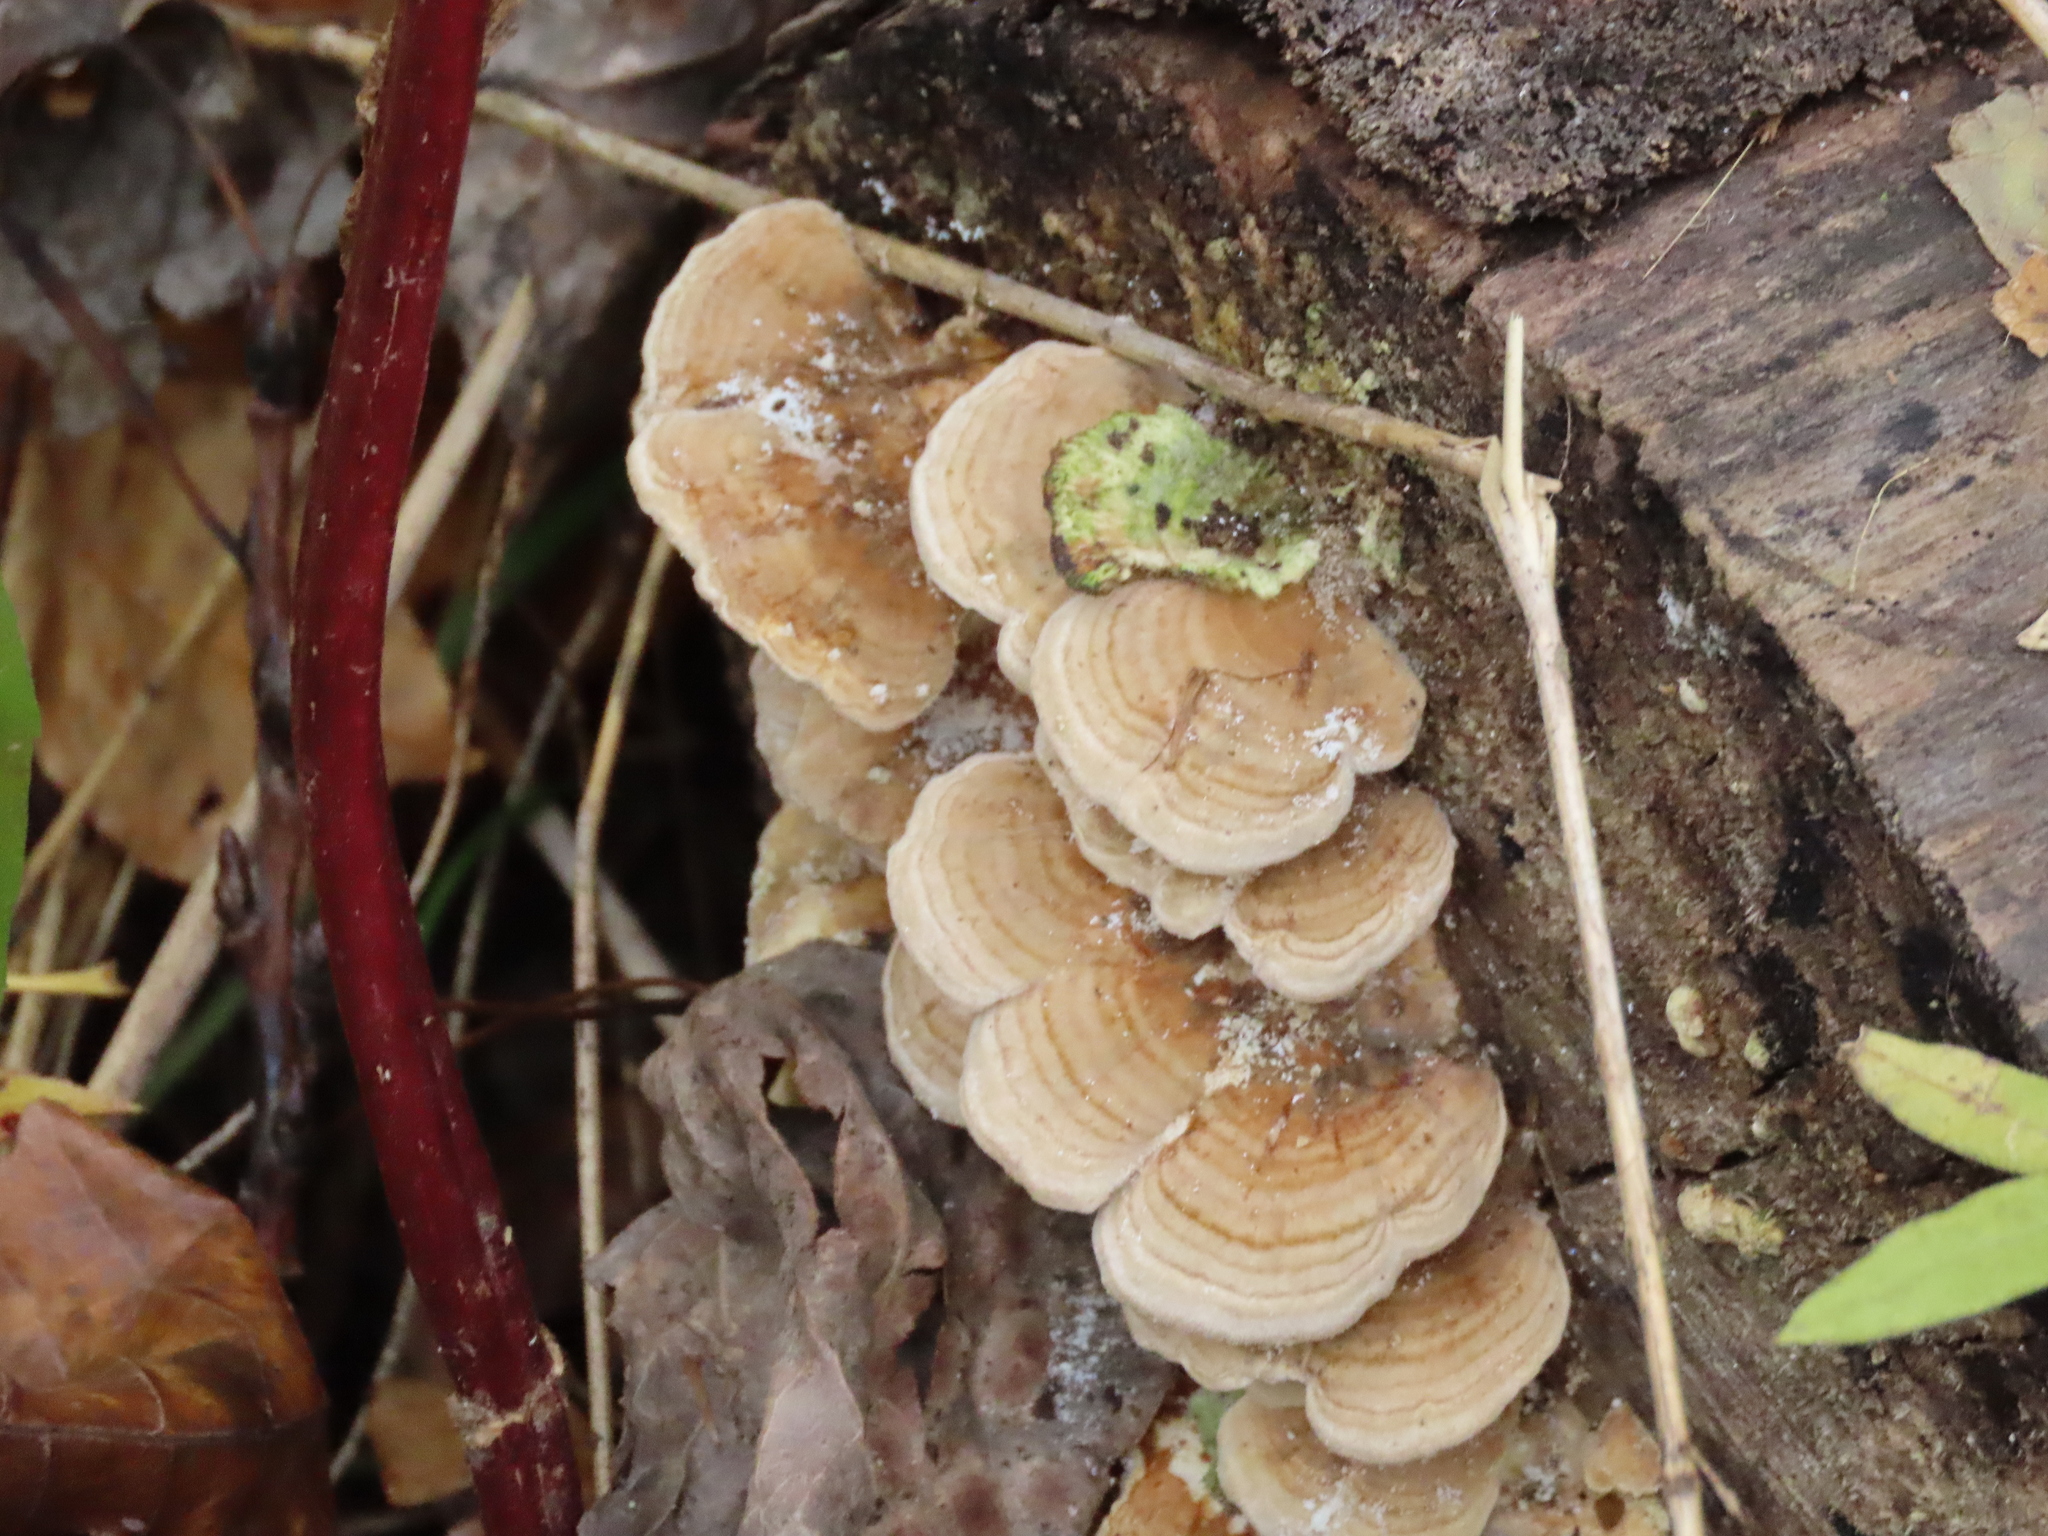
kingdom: Fungi
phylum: Basidiomycota
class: Agaricomycetes
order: Polyporales
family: Polyporaceae
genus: Trametes
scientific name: Trametes ochracea
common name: Ochre bracket
